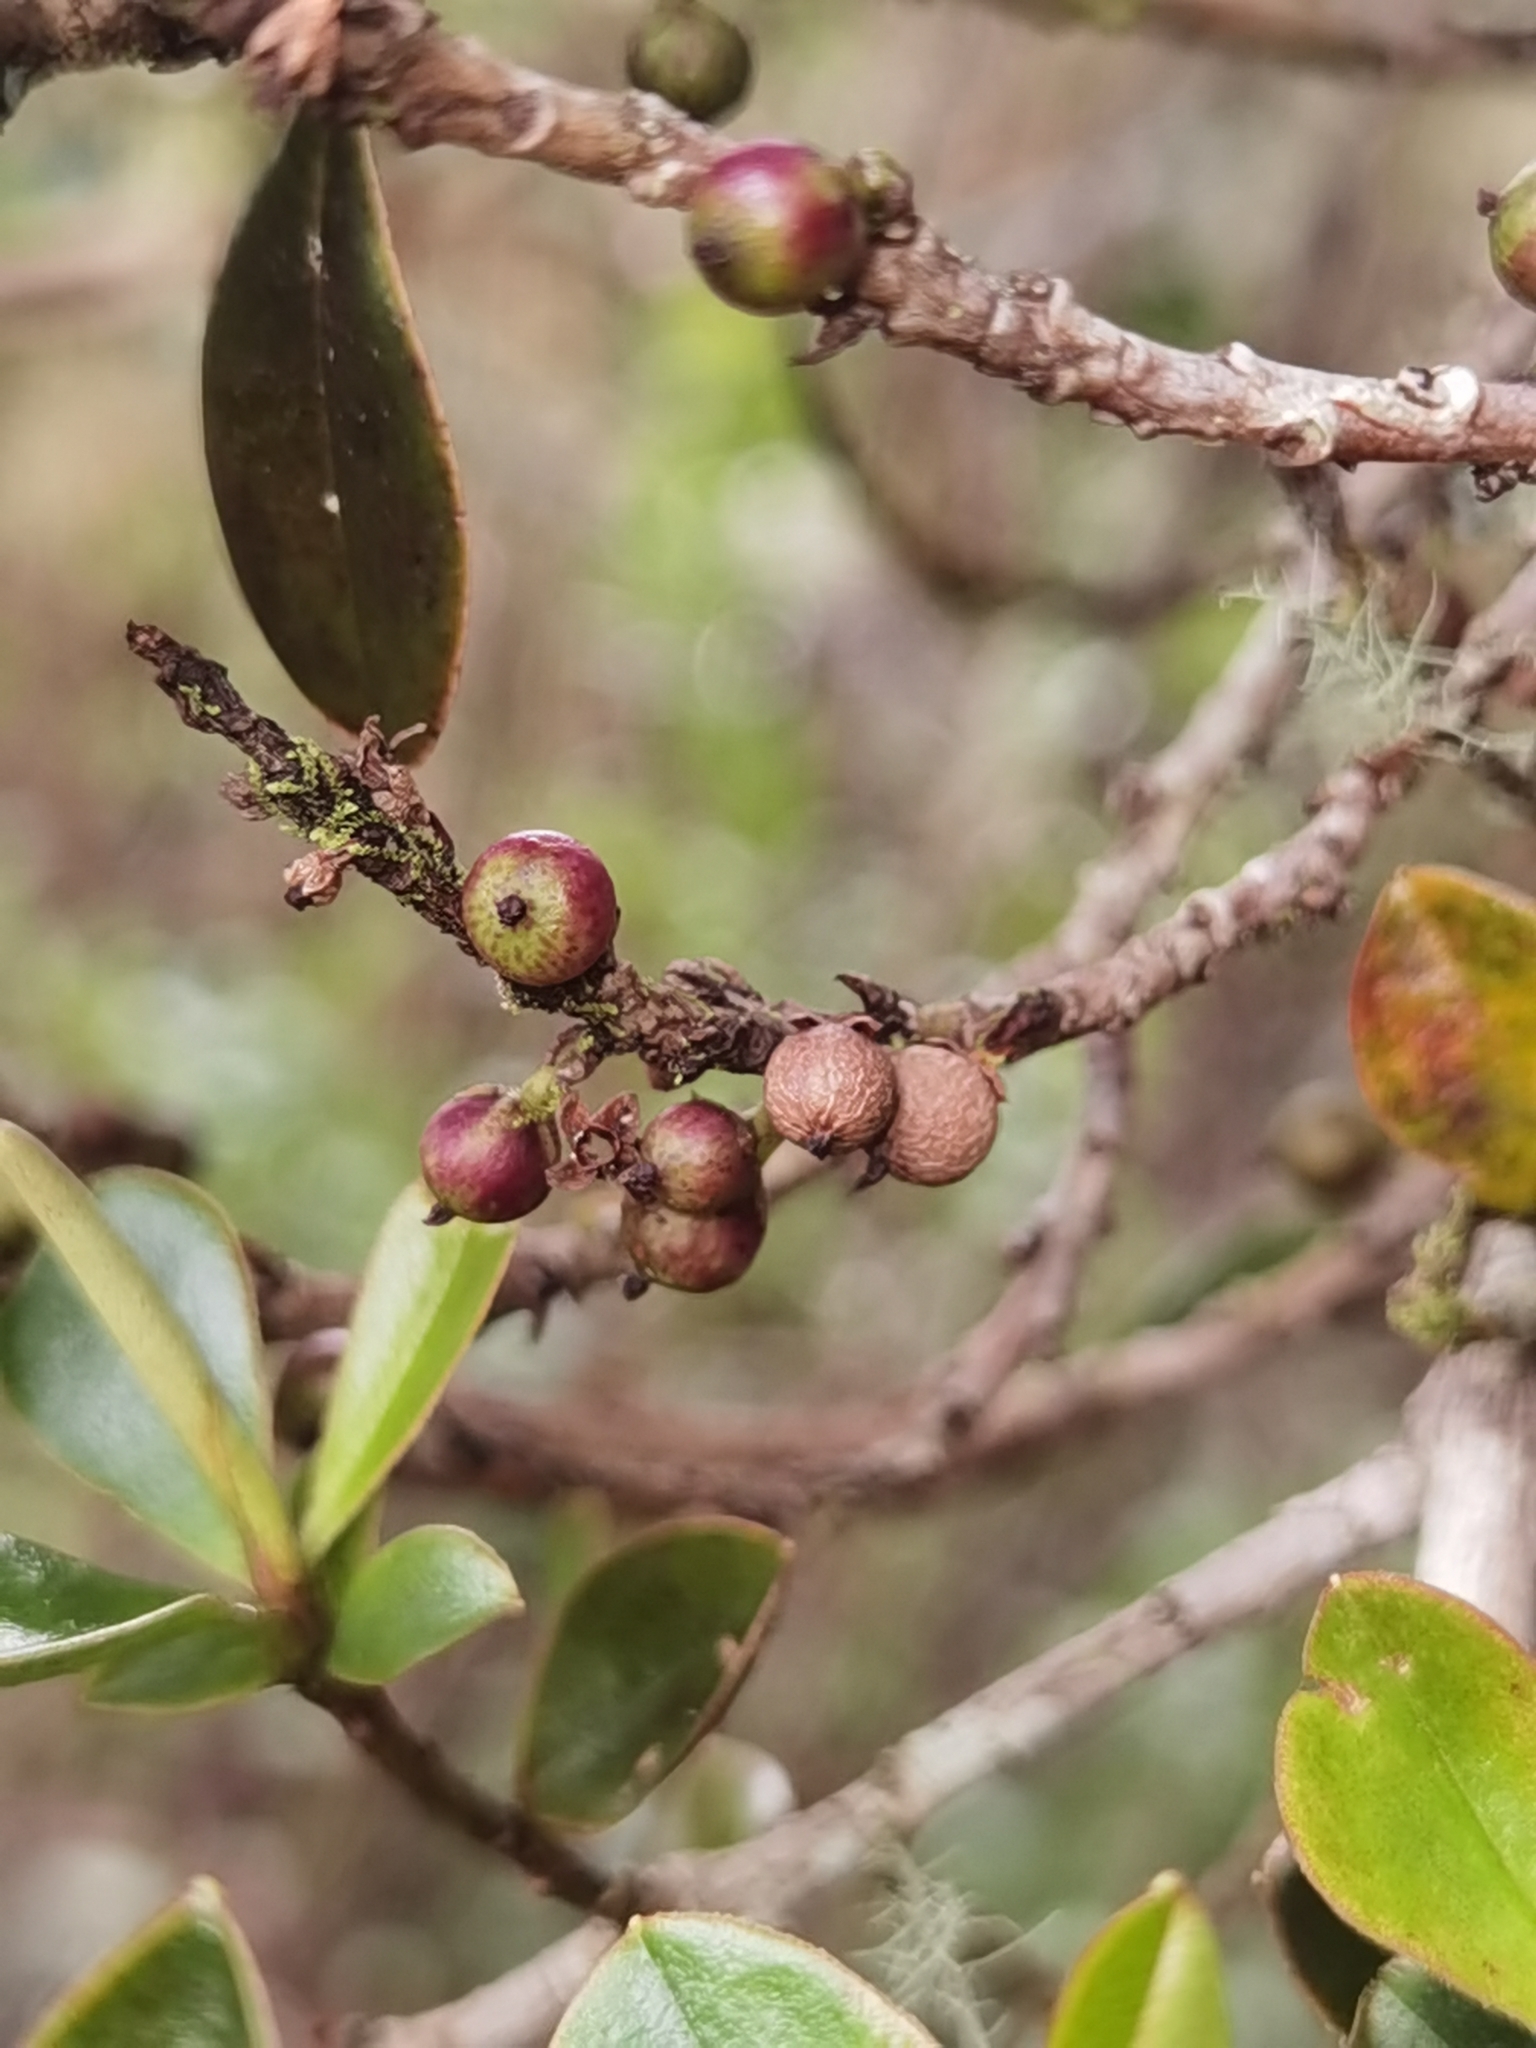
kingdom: Plantae
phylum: Tracheophyta
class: Magnoliopsida
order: Ericales
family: Primulaceae
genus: Myrsine
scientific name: Myrsine dependens
